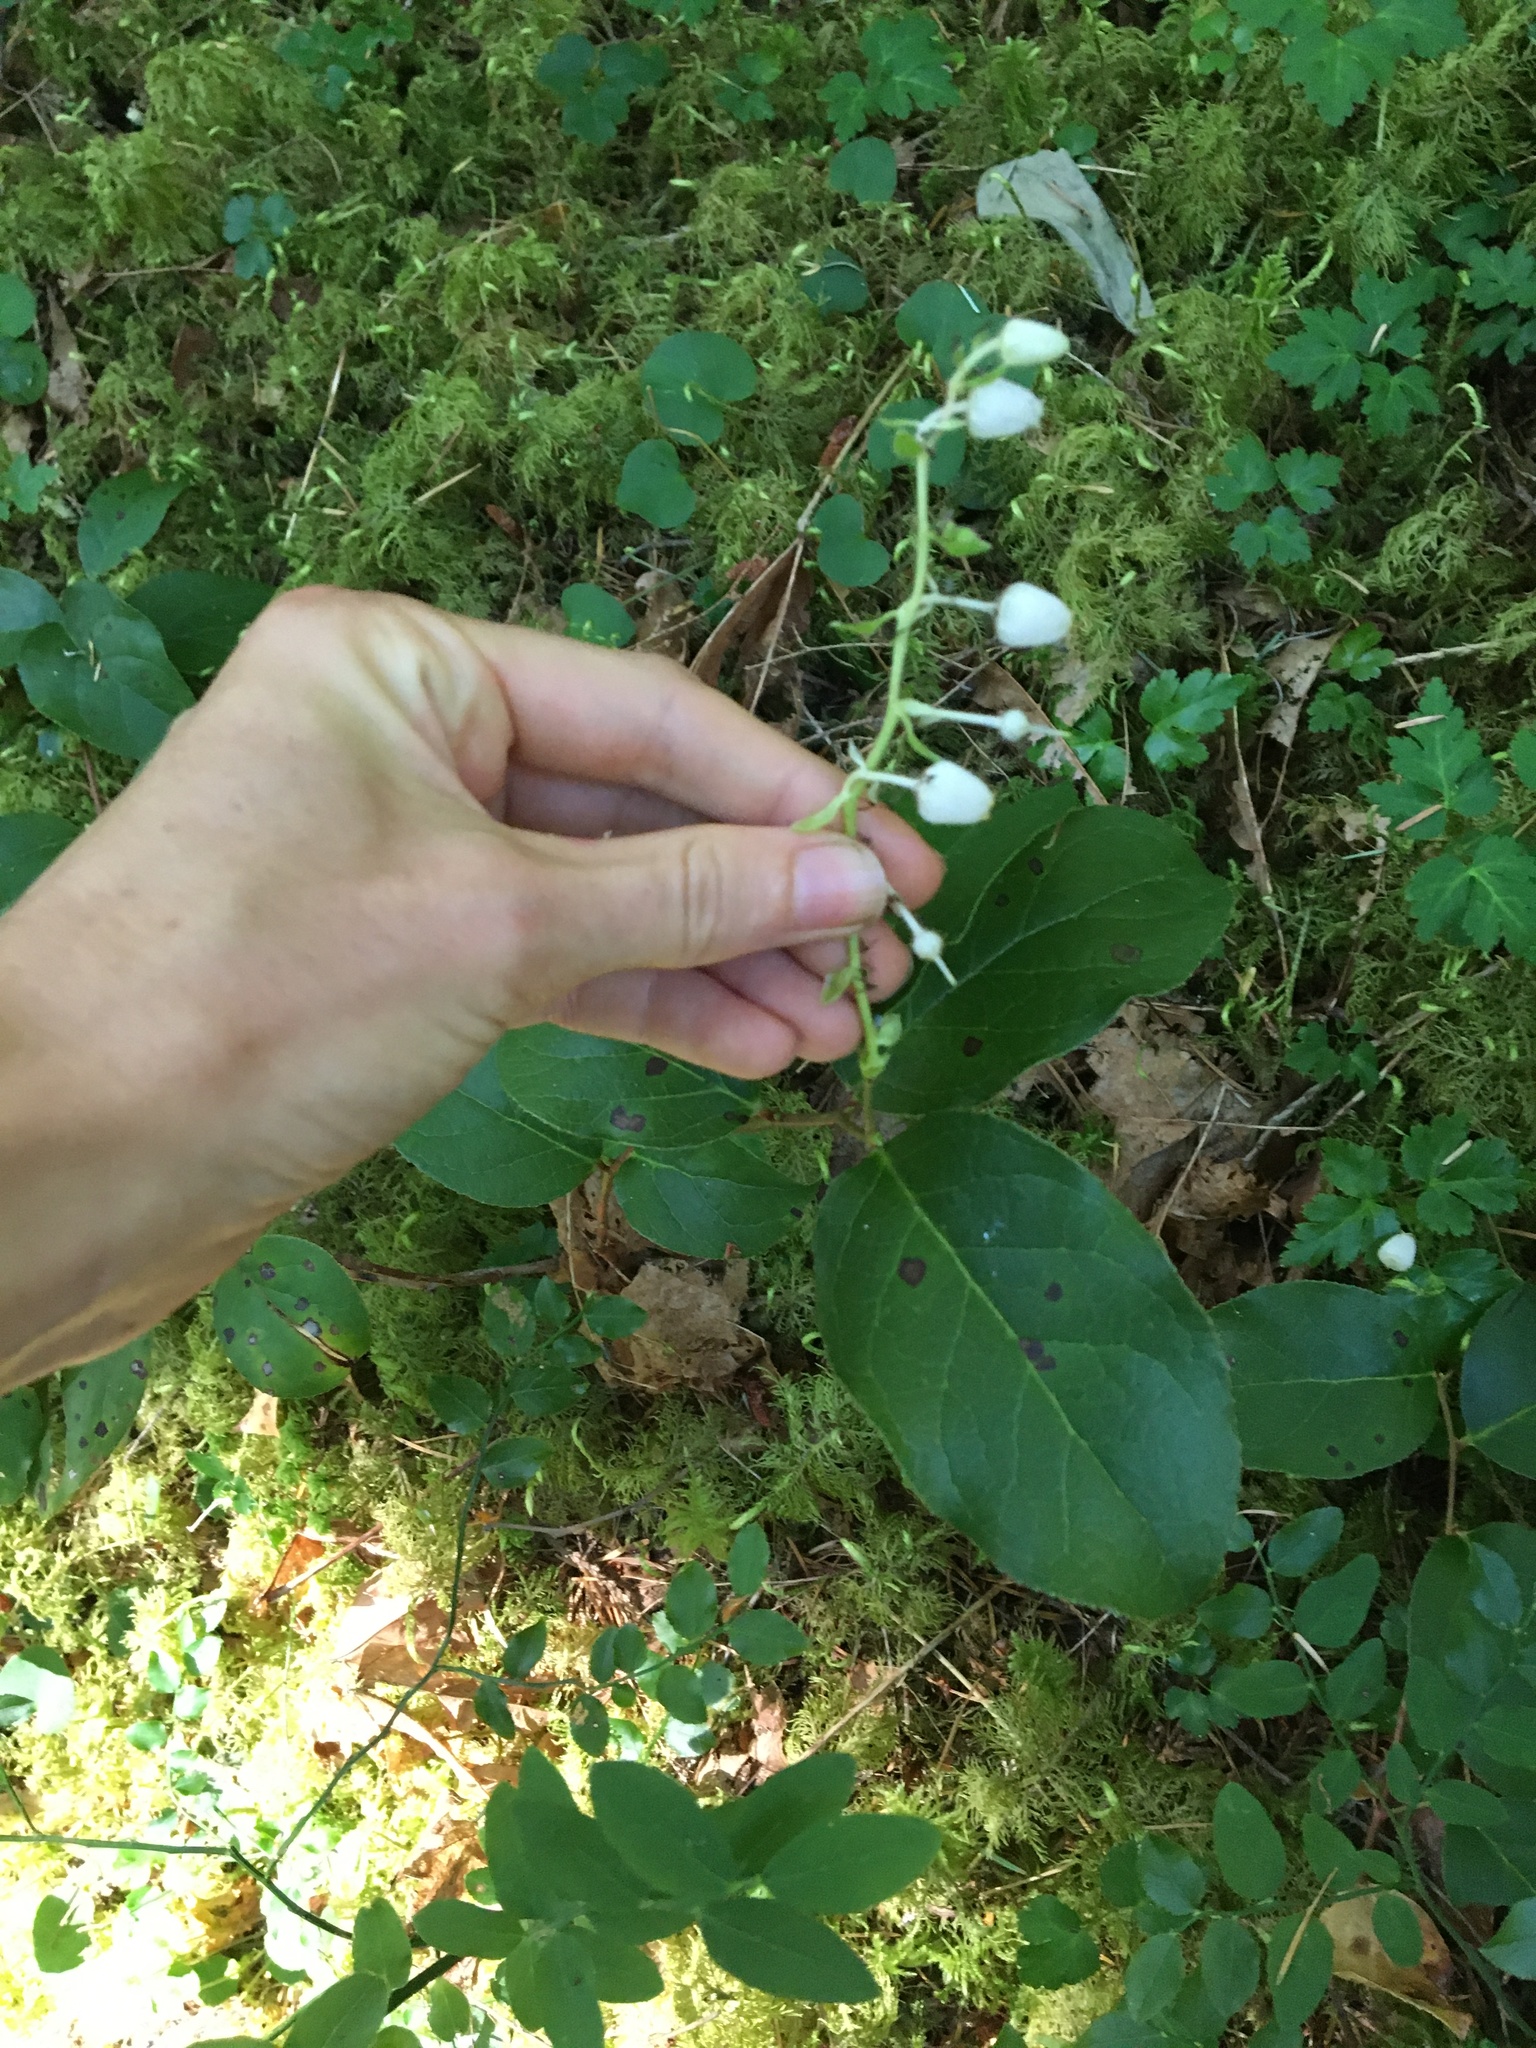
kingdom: Plantae
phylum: Tracheophyta
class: Magnoliopsida
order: Ericales
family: Ericaceae
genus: Gaultheria
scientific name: Gaultheria shallon
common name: Shallon
